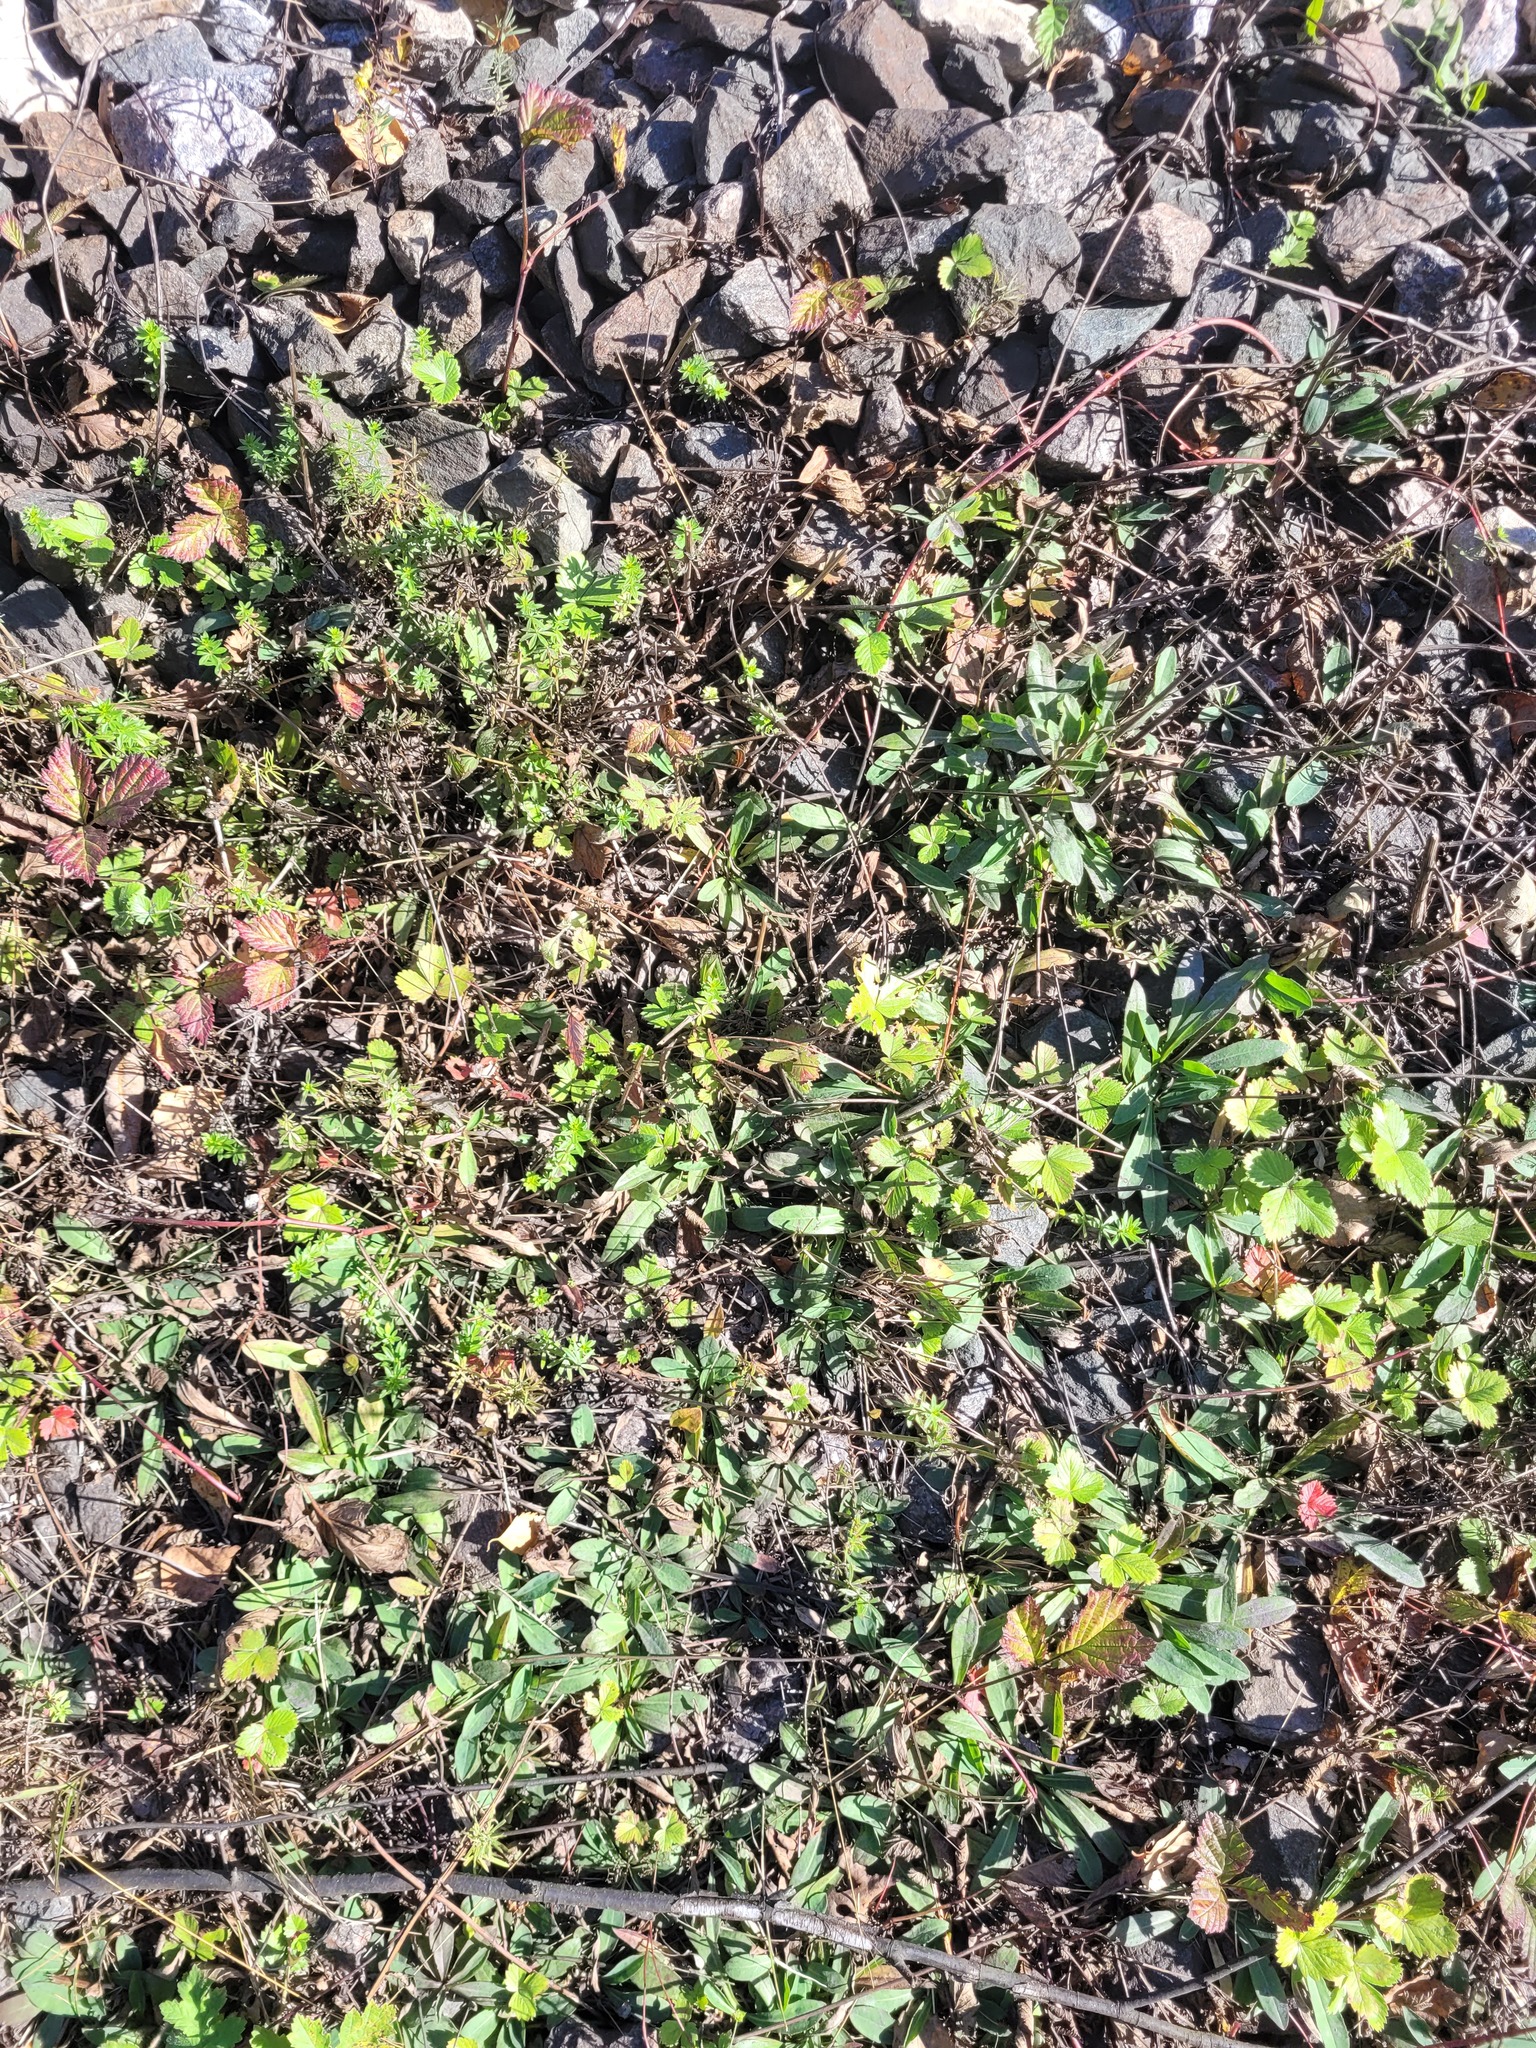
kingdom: Plantae
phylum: Tracheophyta
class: Magnoliopsida
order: Rosales
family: Rosaceae
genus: Fragaria
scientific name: Fragaria vesca
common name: Wild strawberry
